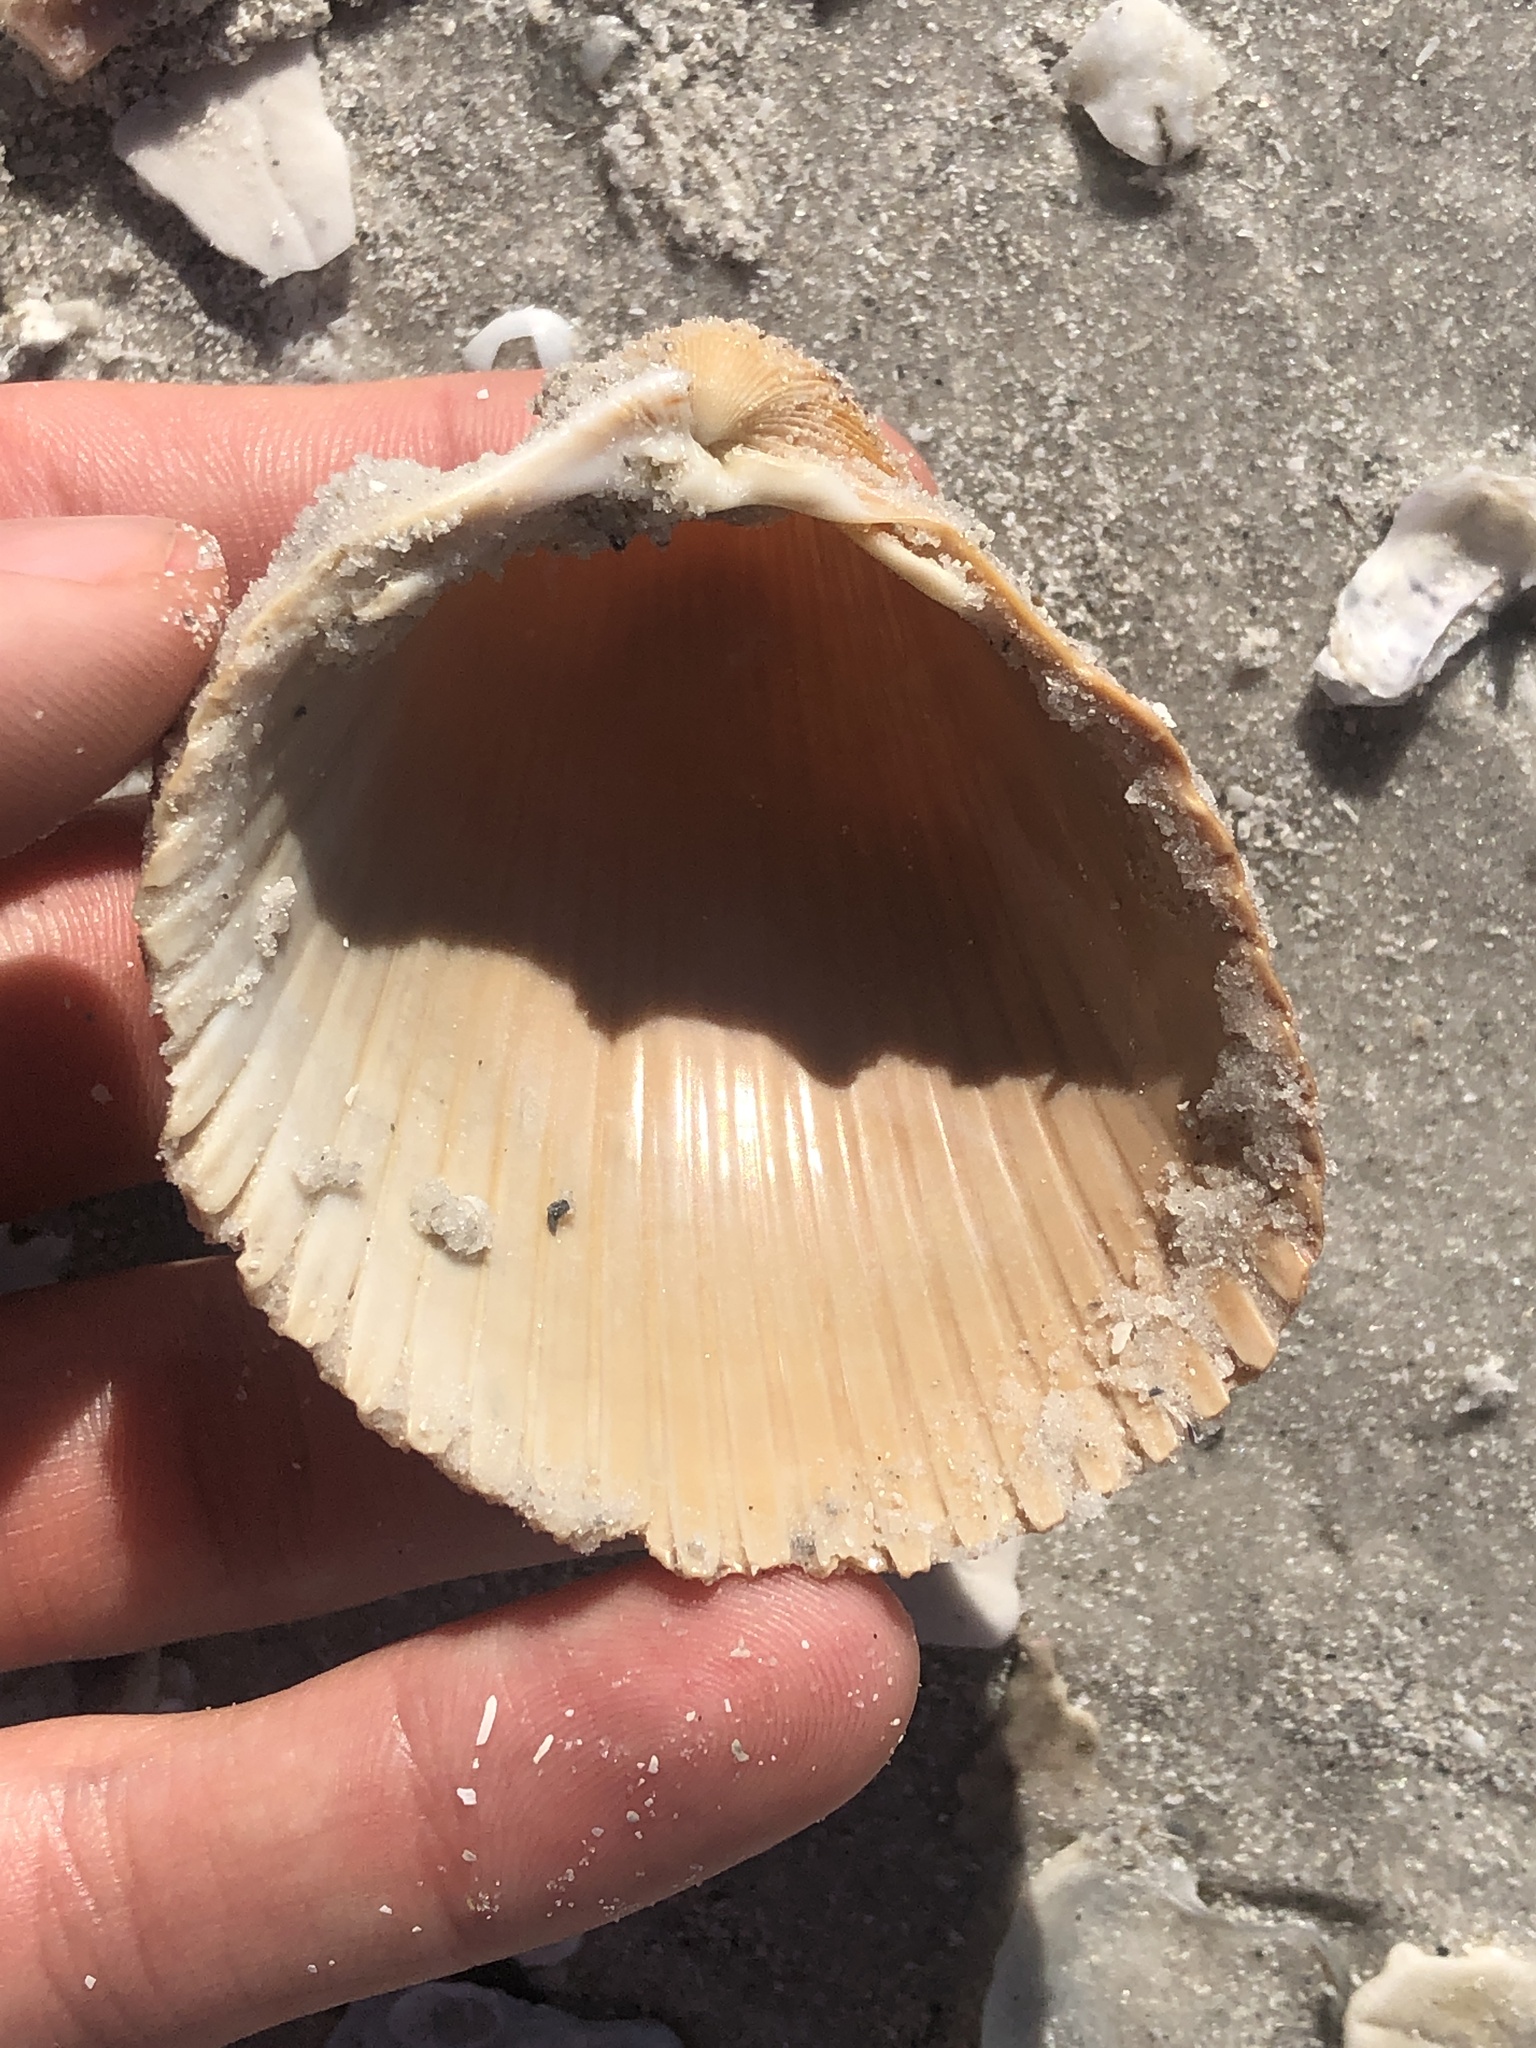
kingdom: Animalia
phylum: Mollusca
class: Bivalvia
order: Cardiida
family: Cardiidae
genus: Dinocardium
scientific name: Dinocardium robustum
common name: Atlantic giant cockle
